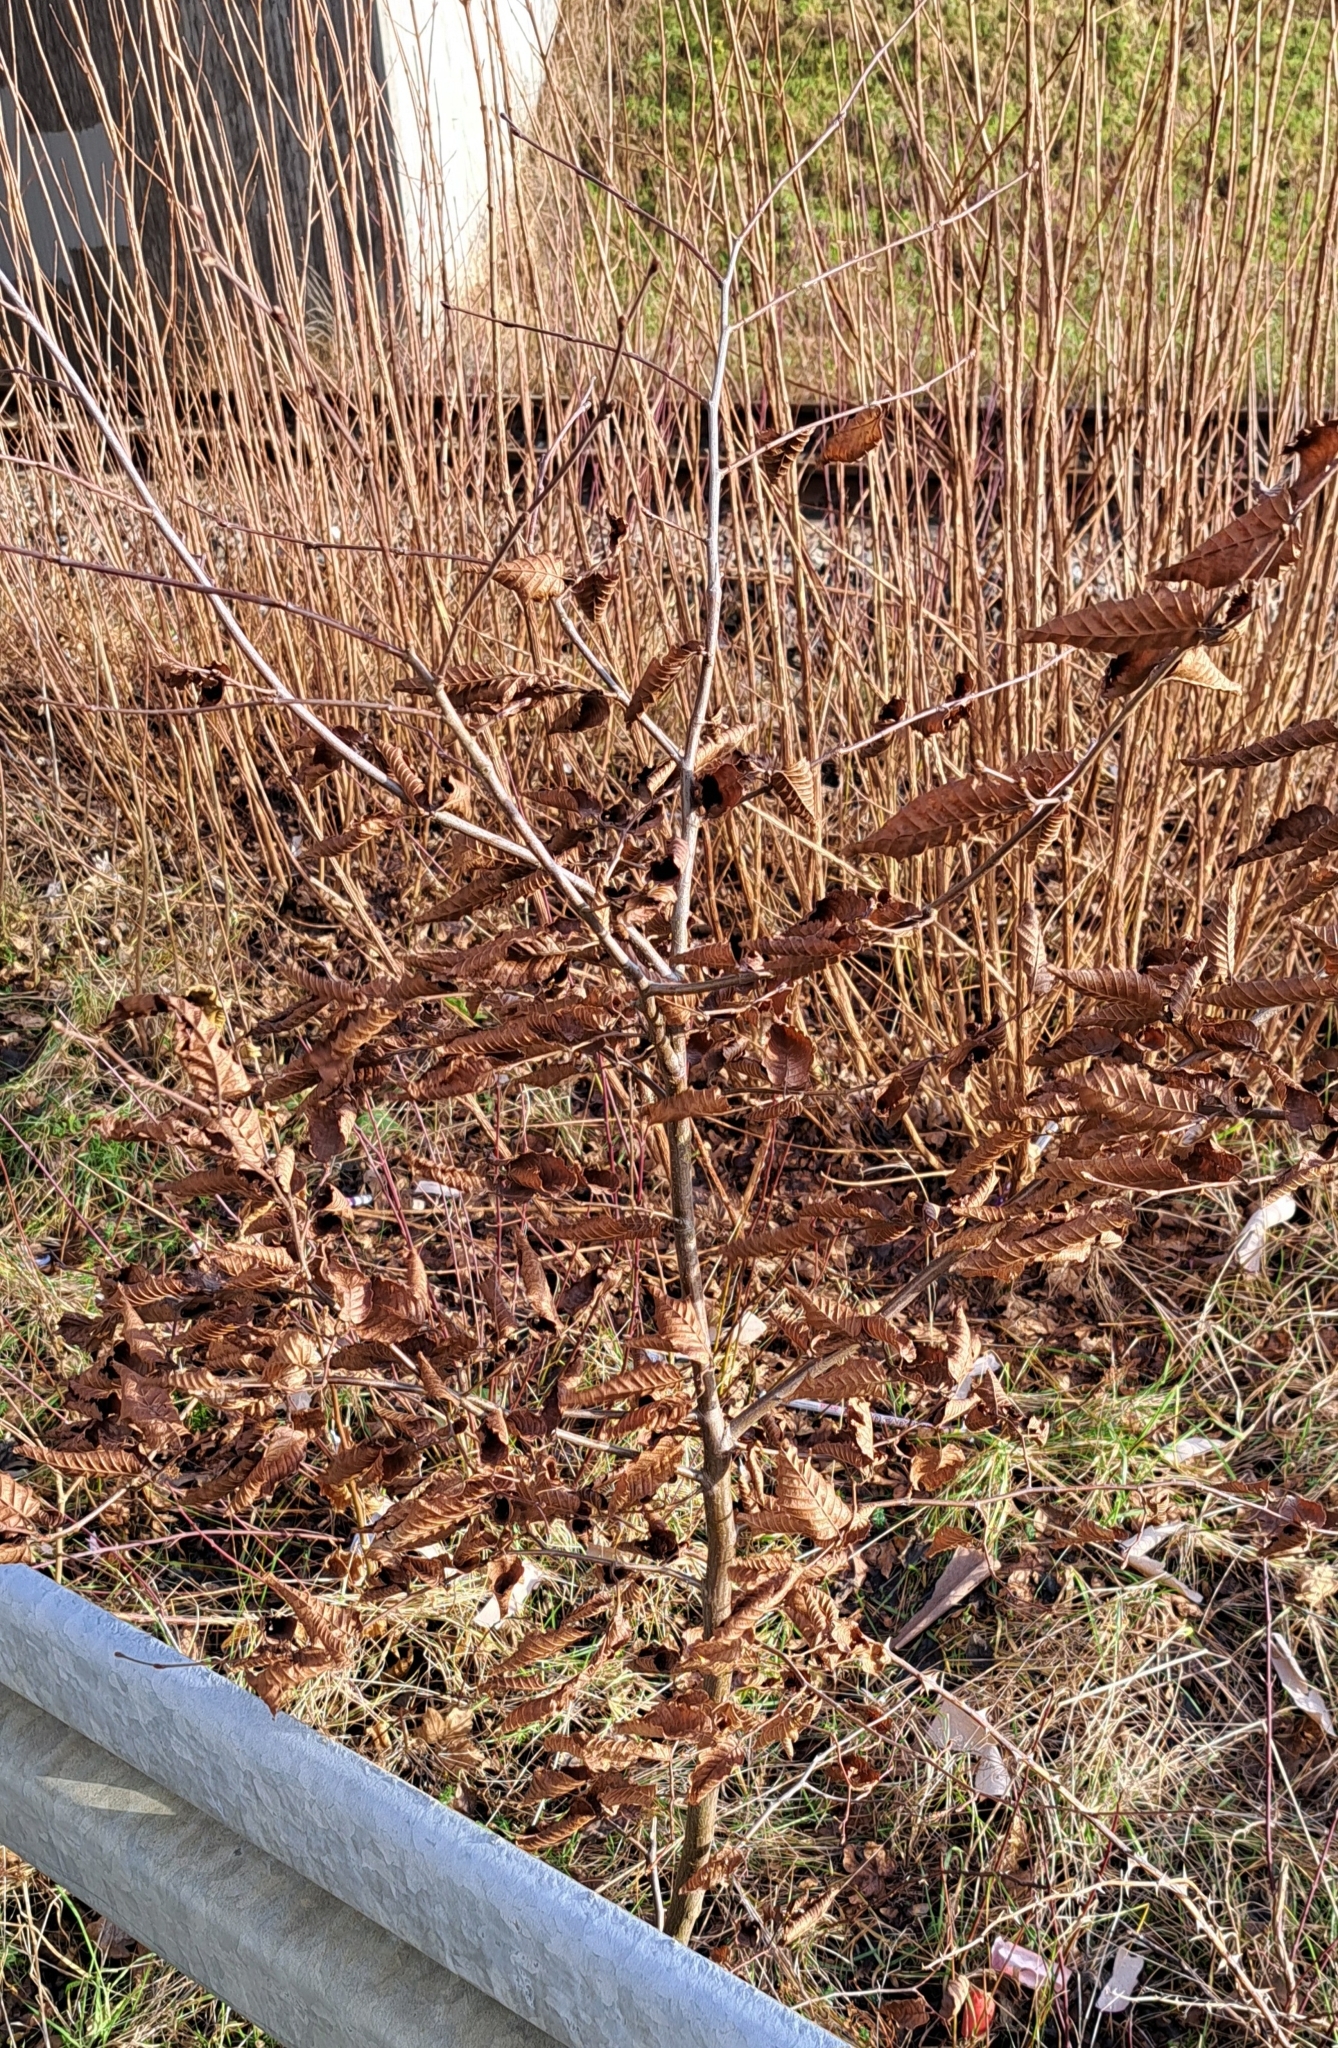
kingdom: Plantae
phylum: Tracheophyta
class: Magnoliopsida
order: Fagales
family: Betulaceae
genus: Carpinus
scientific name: Carpinus betulus
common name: Hornbeam
